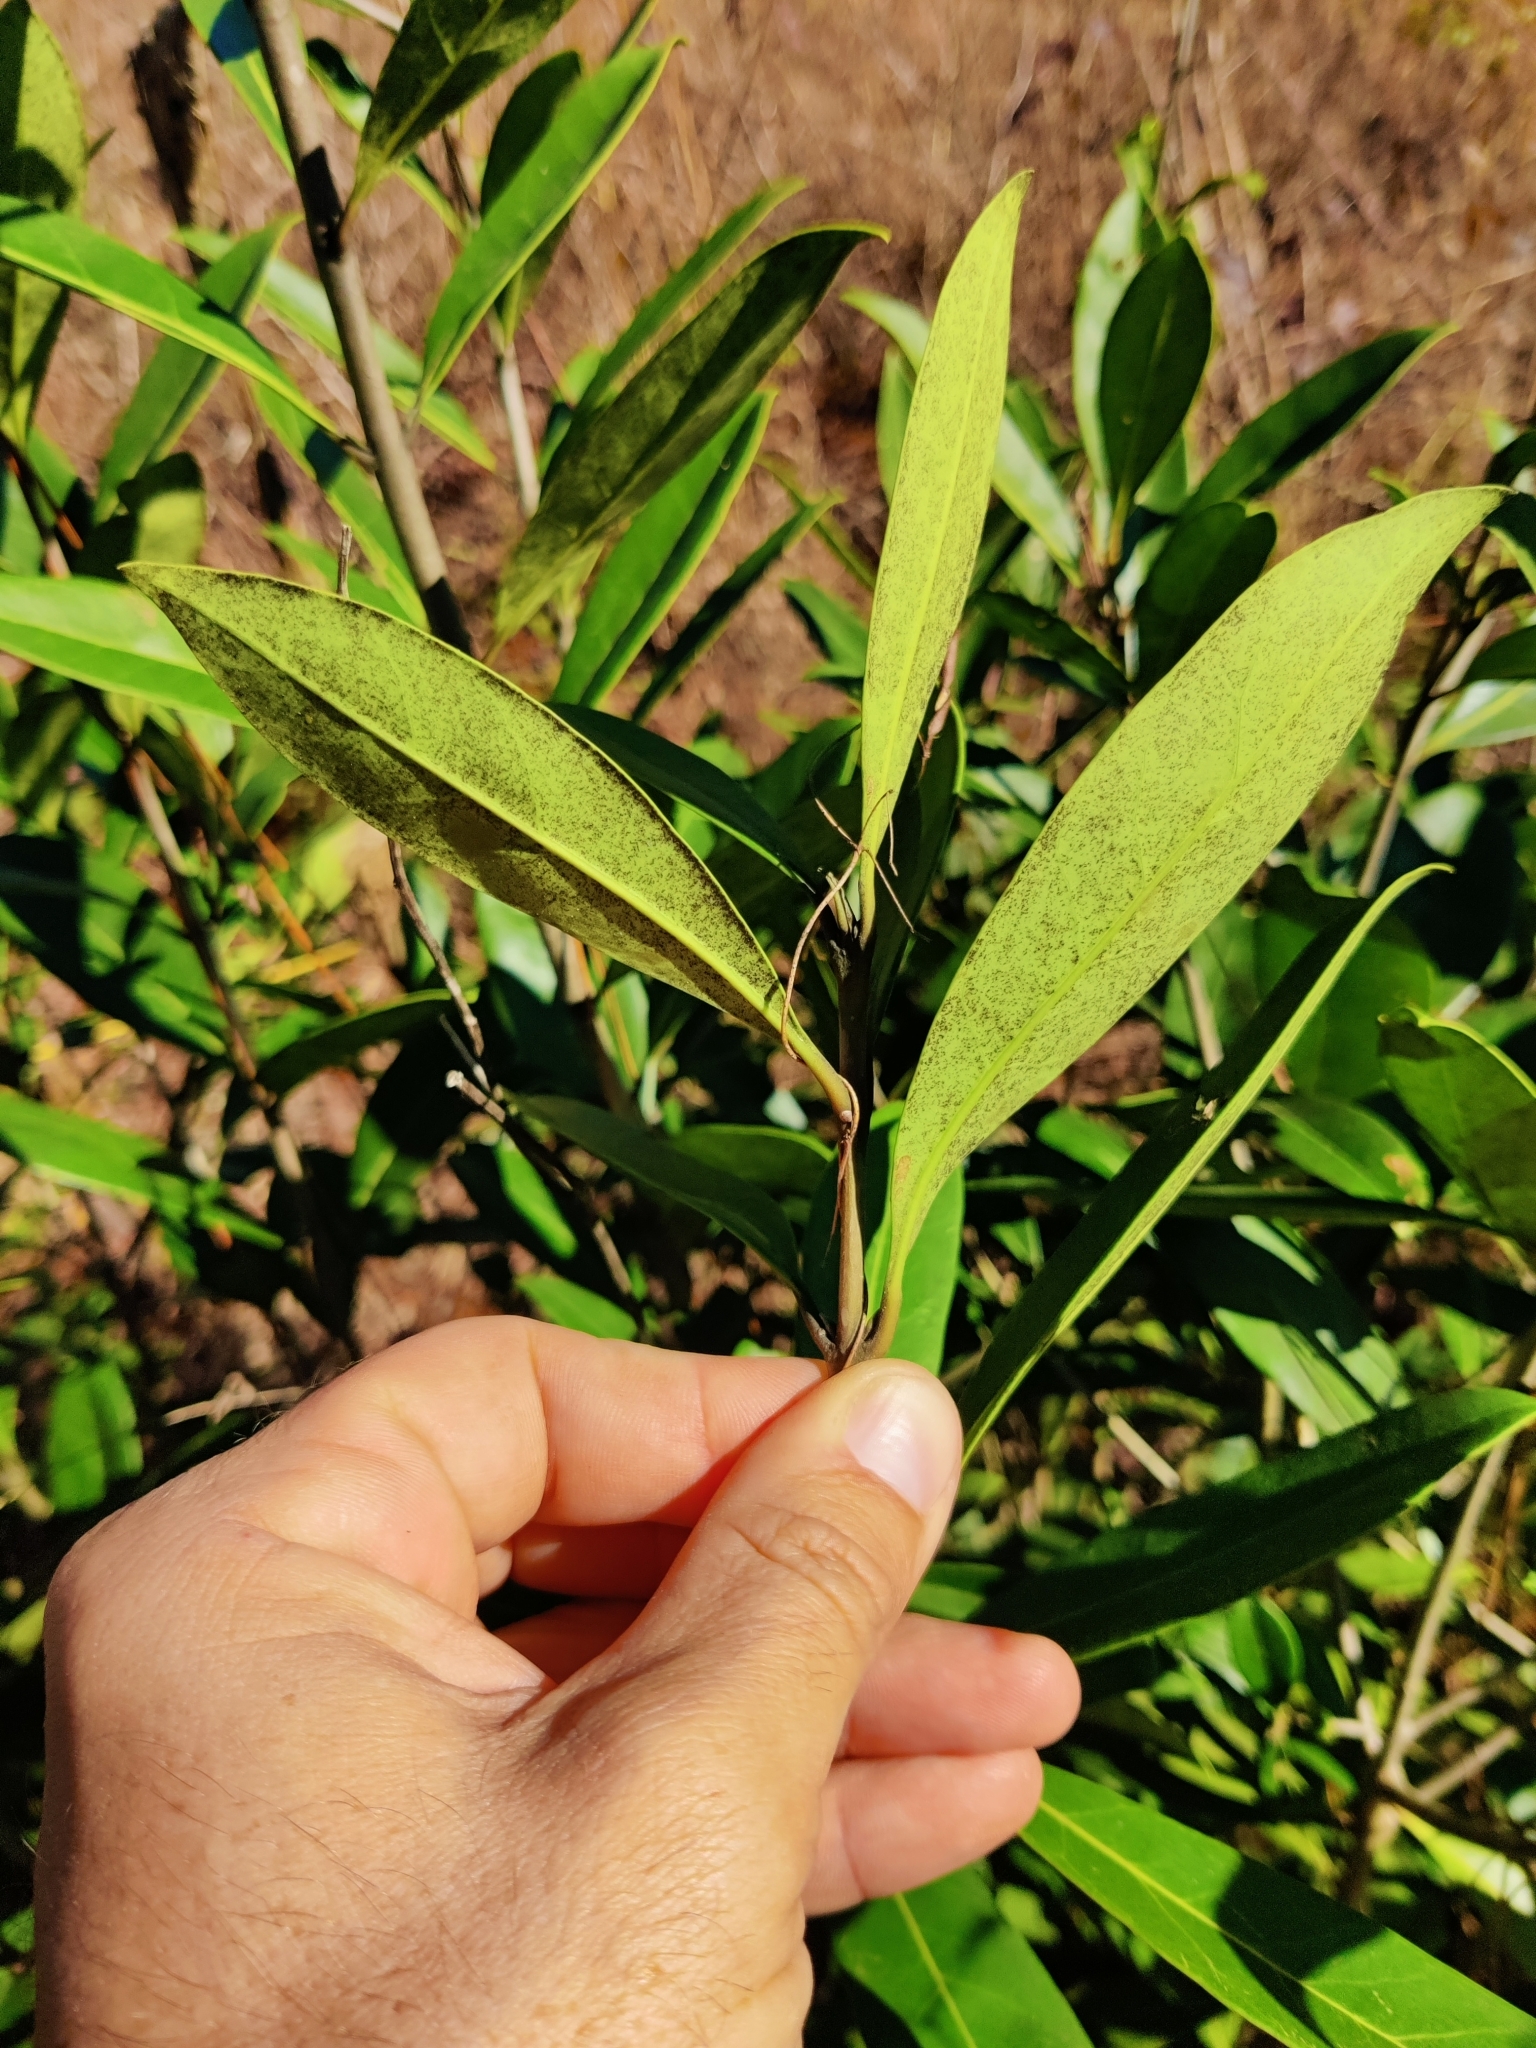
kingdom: Plantae
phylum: Tracheophyta
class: Magnoliopsida
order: Lamiales
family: Oleaceae
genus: Cartrema
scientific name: Cartrema americana
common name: Devilwood
